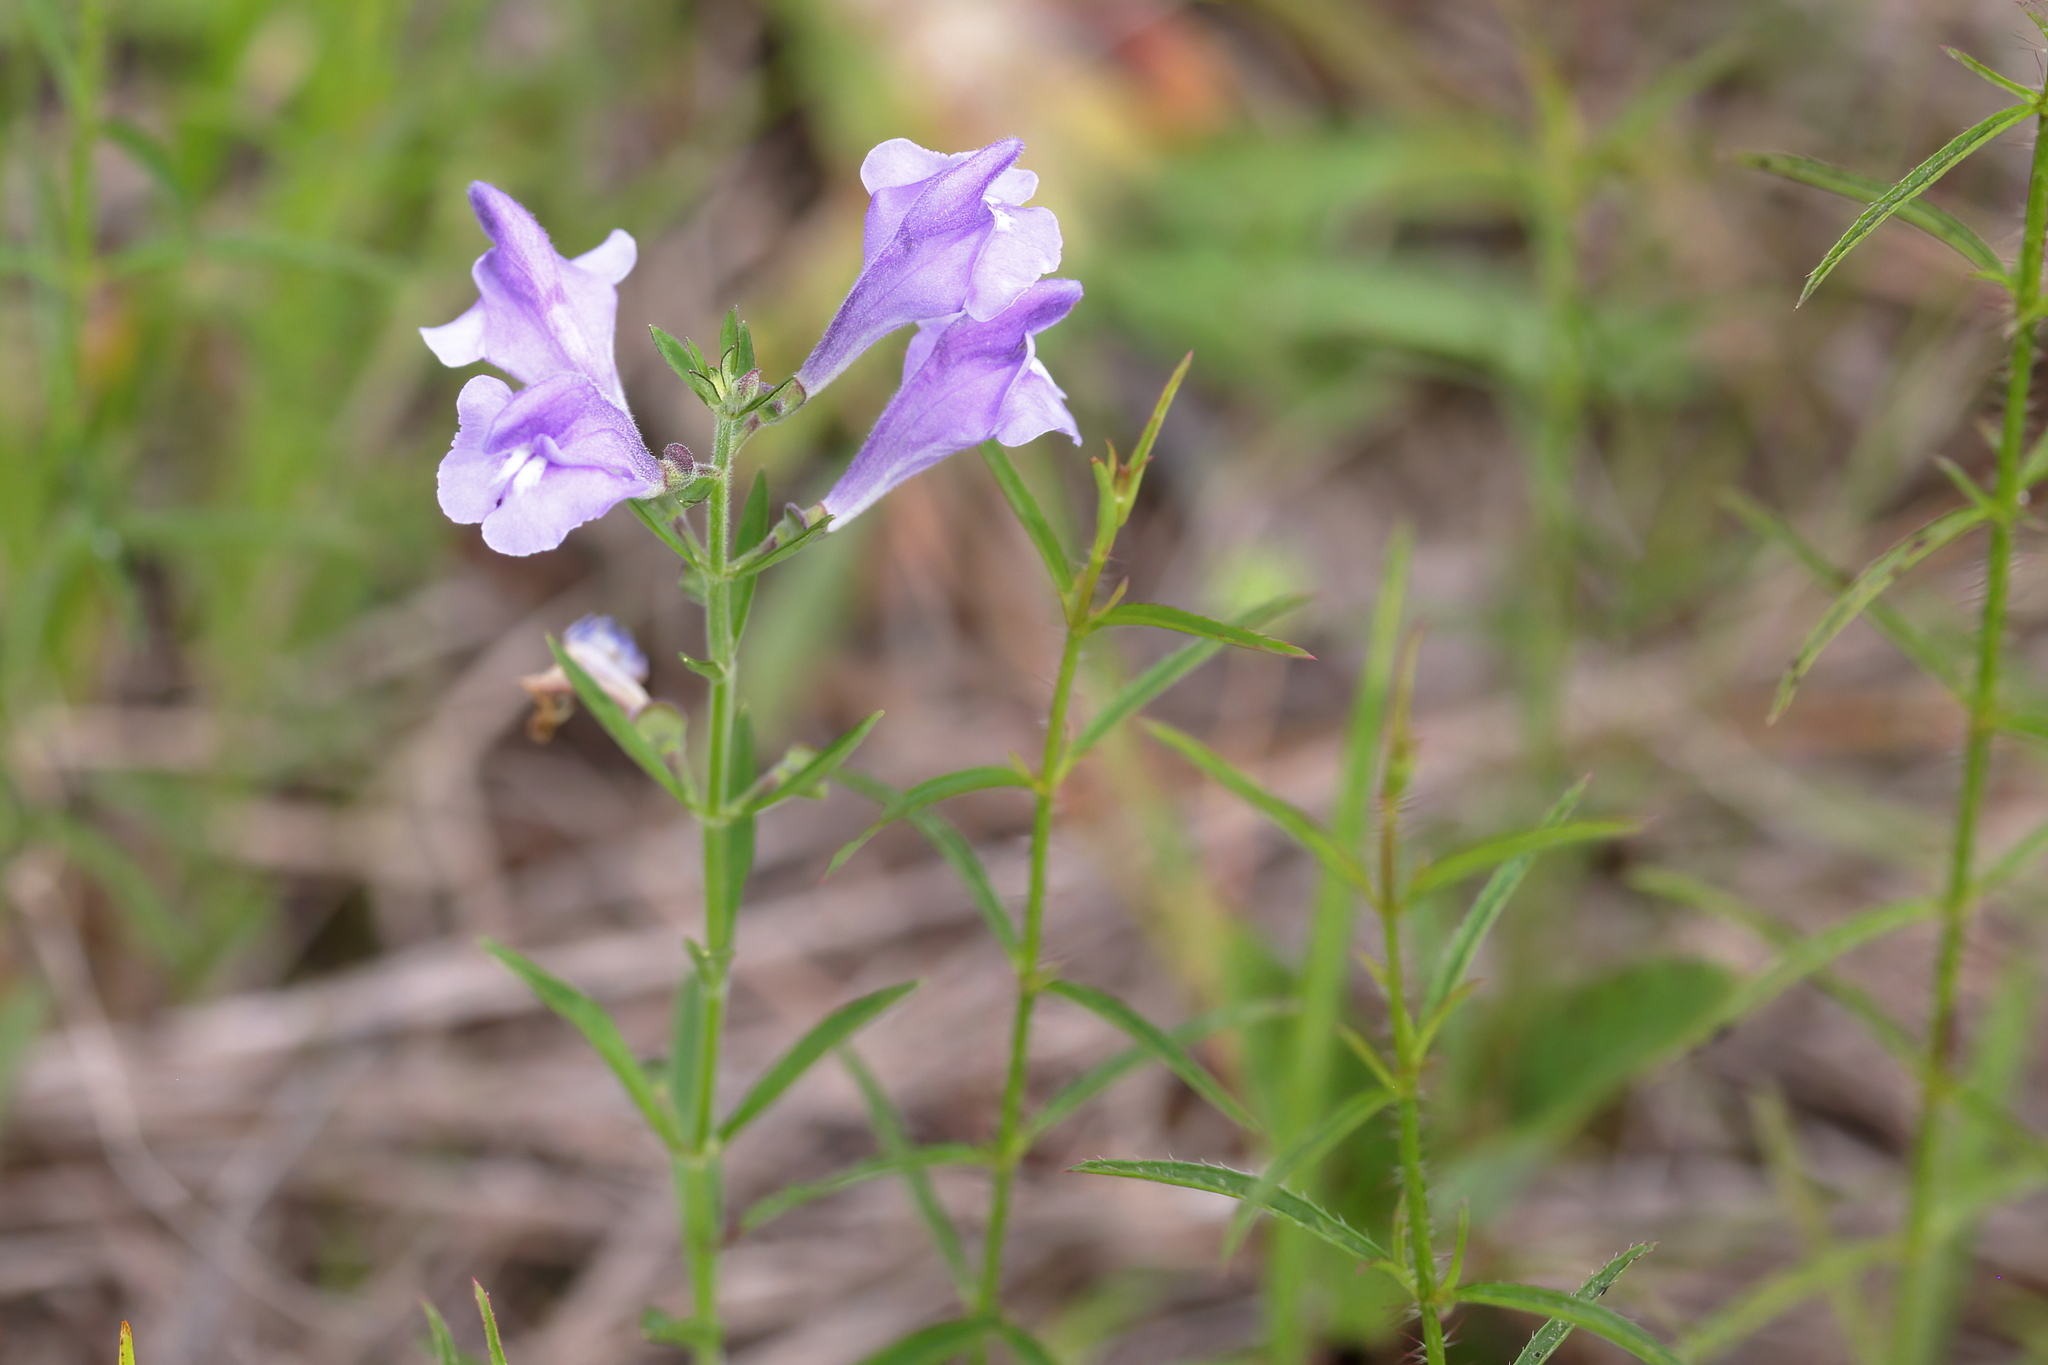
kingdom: Plantae
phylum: Tracheophyta
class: Magnoliopsida
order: Lamiales
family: Lamiaceae
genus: Scutellaria
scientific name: Scutellaria integrifolia
